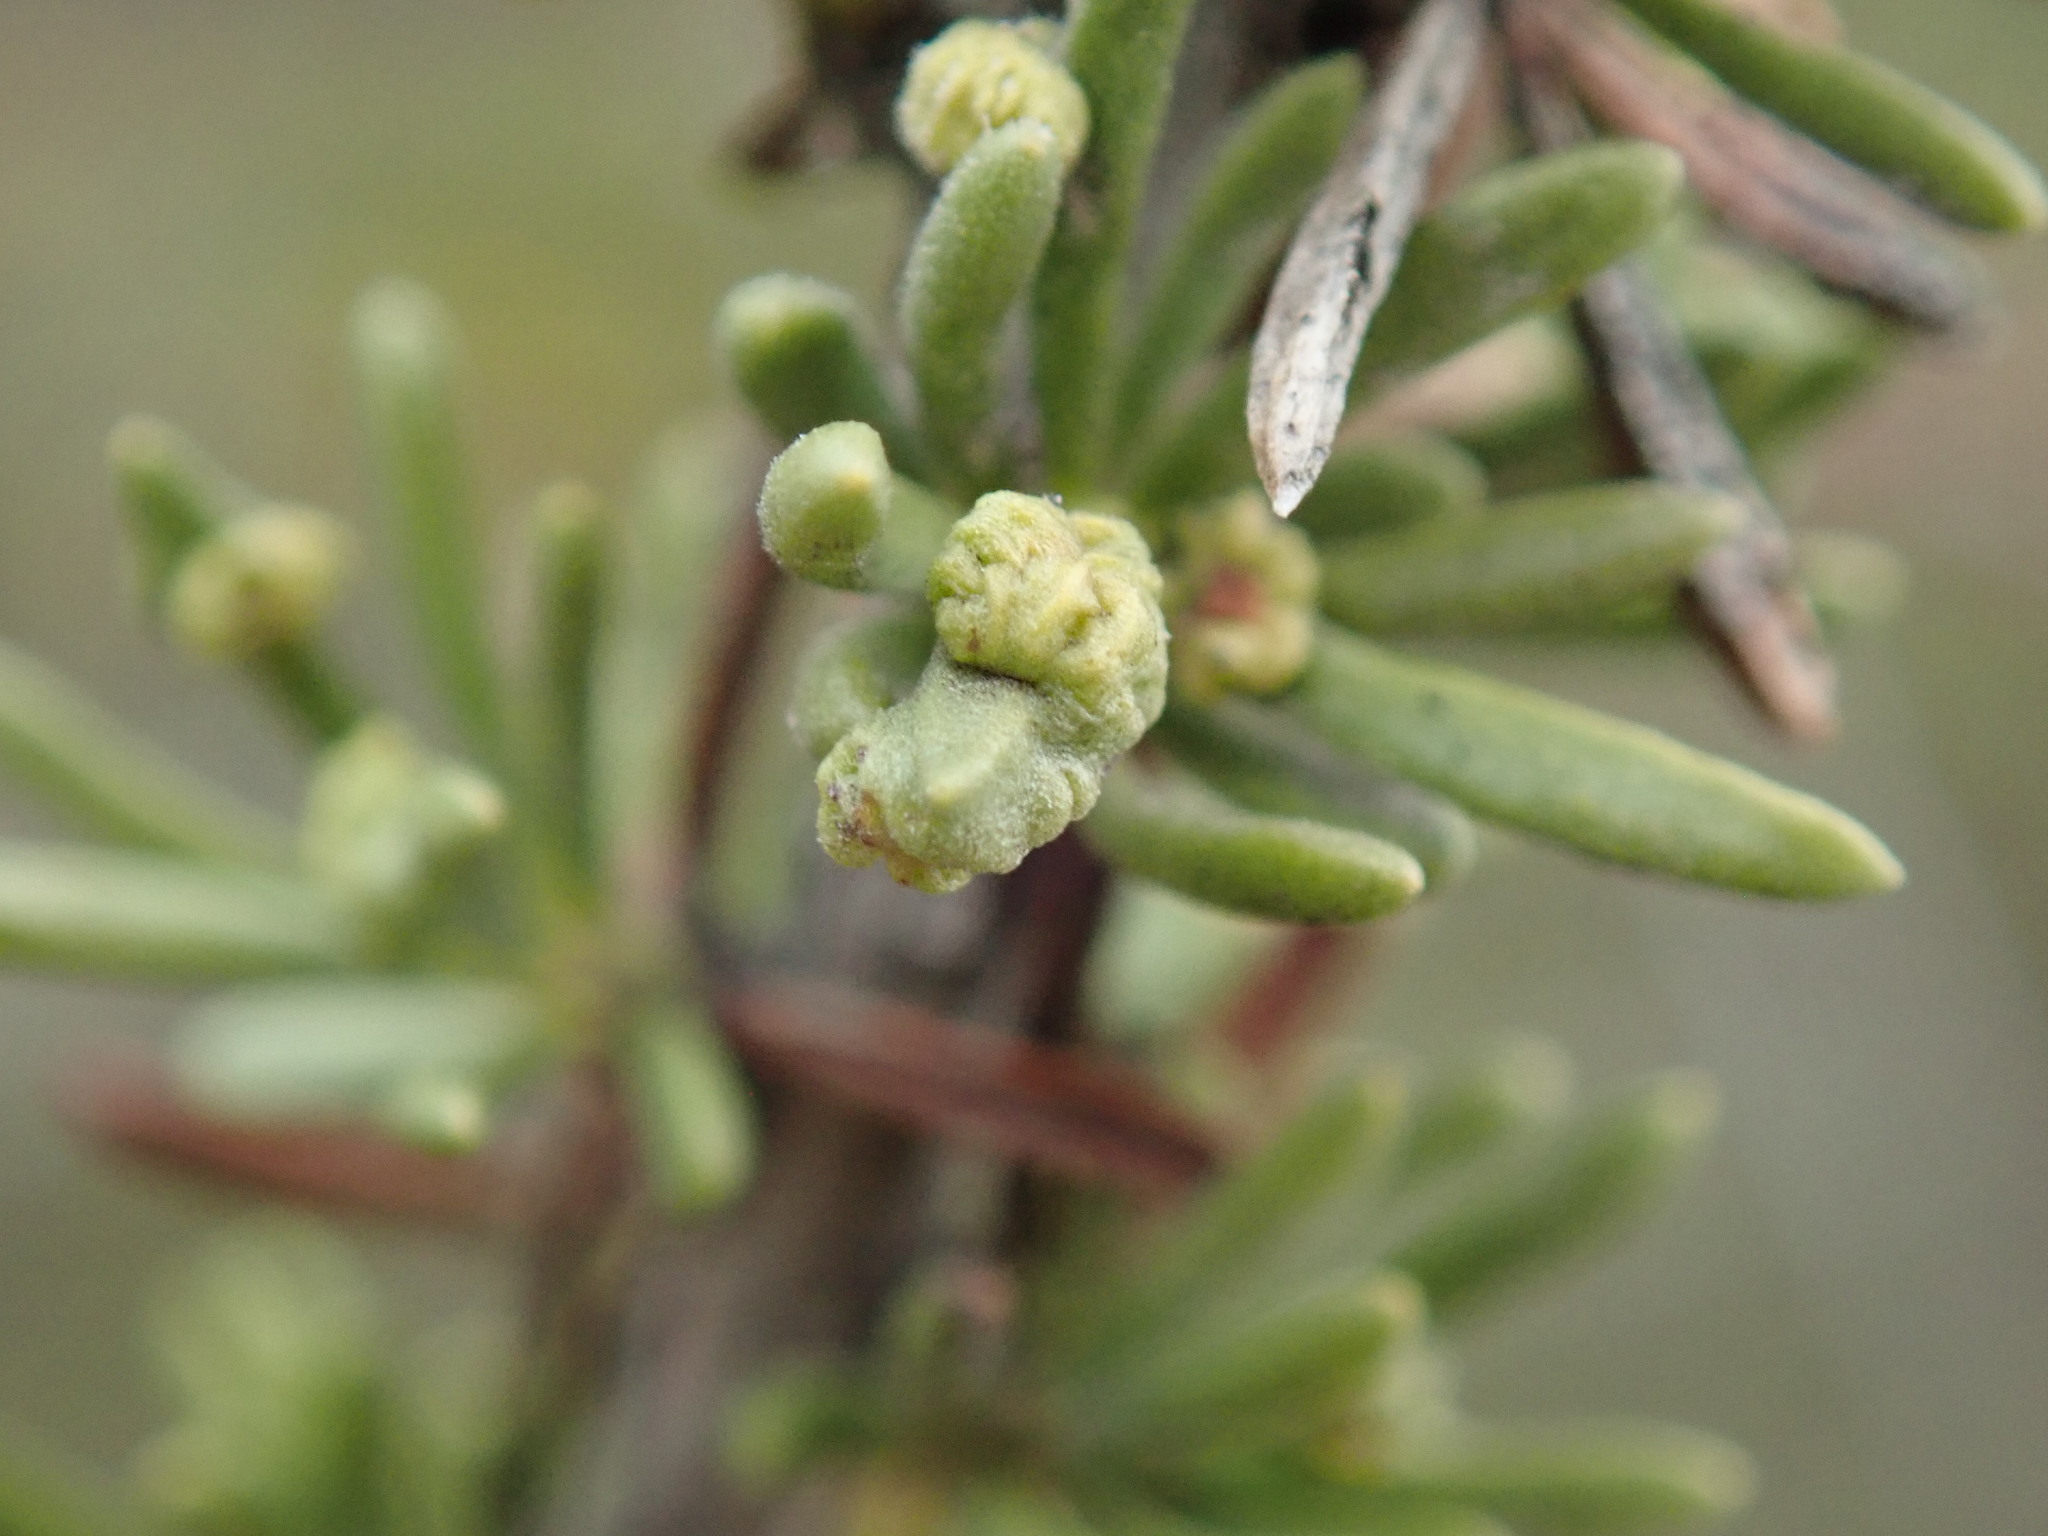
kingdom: Animalia
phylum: Arthropoda
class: Arachnida
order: Trombidiformes
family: Eriophyidae
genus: Eriophyes
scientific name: Eriophyes
